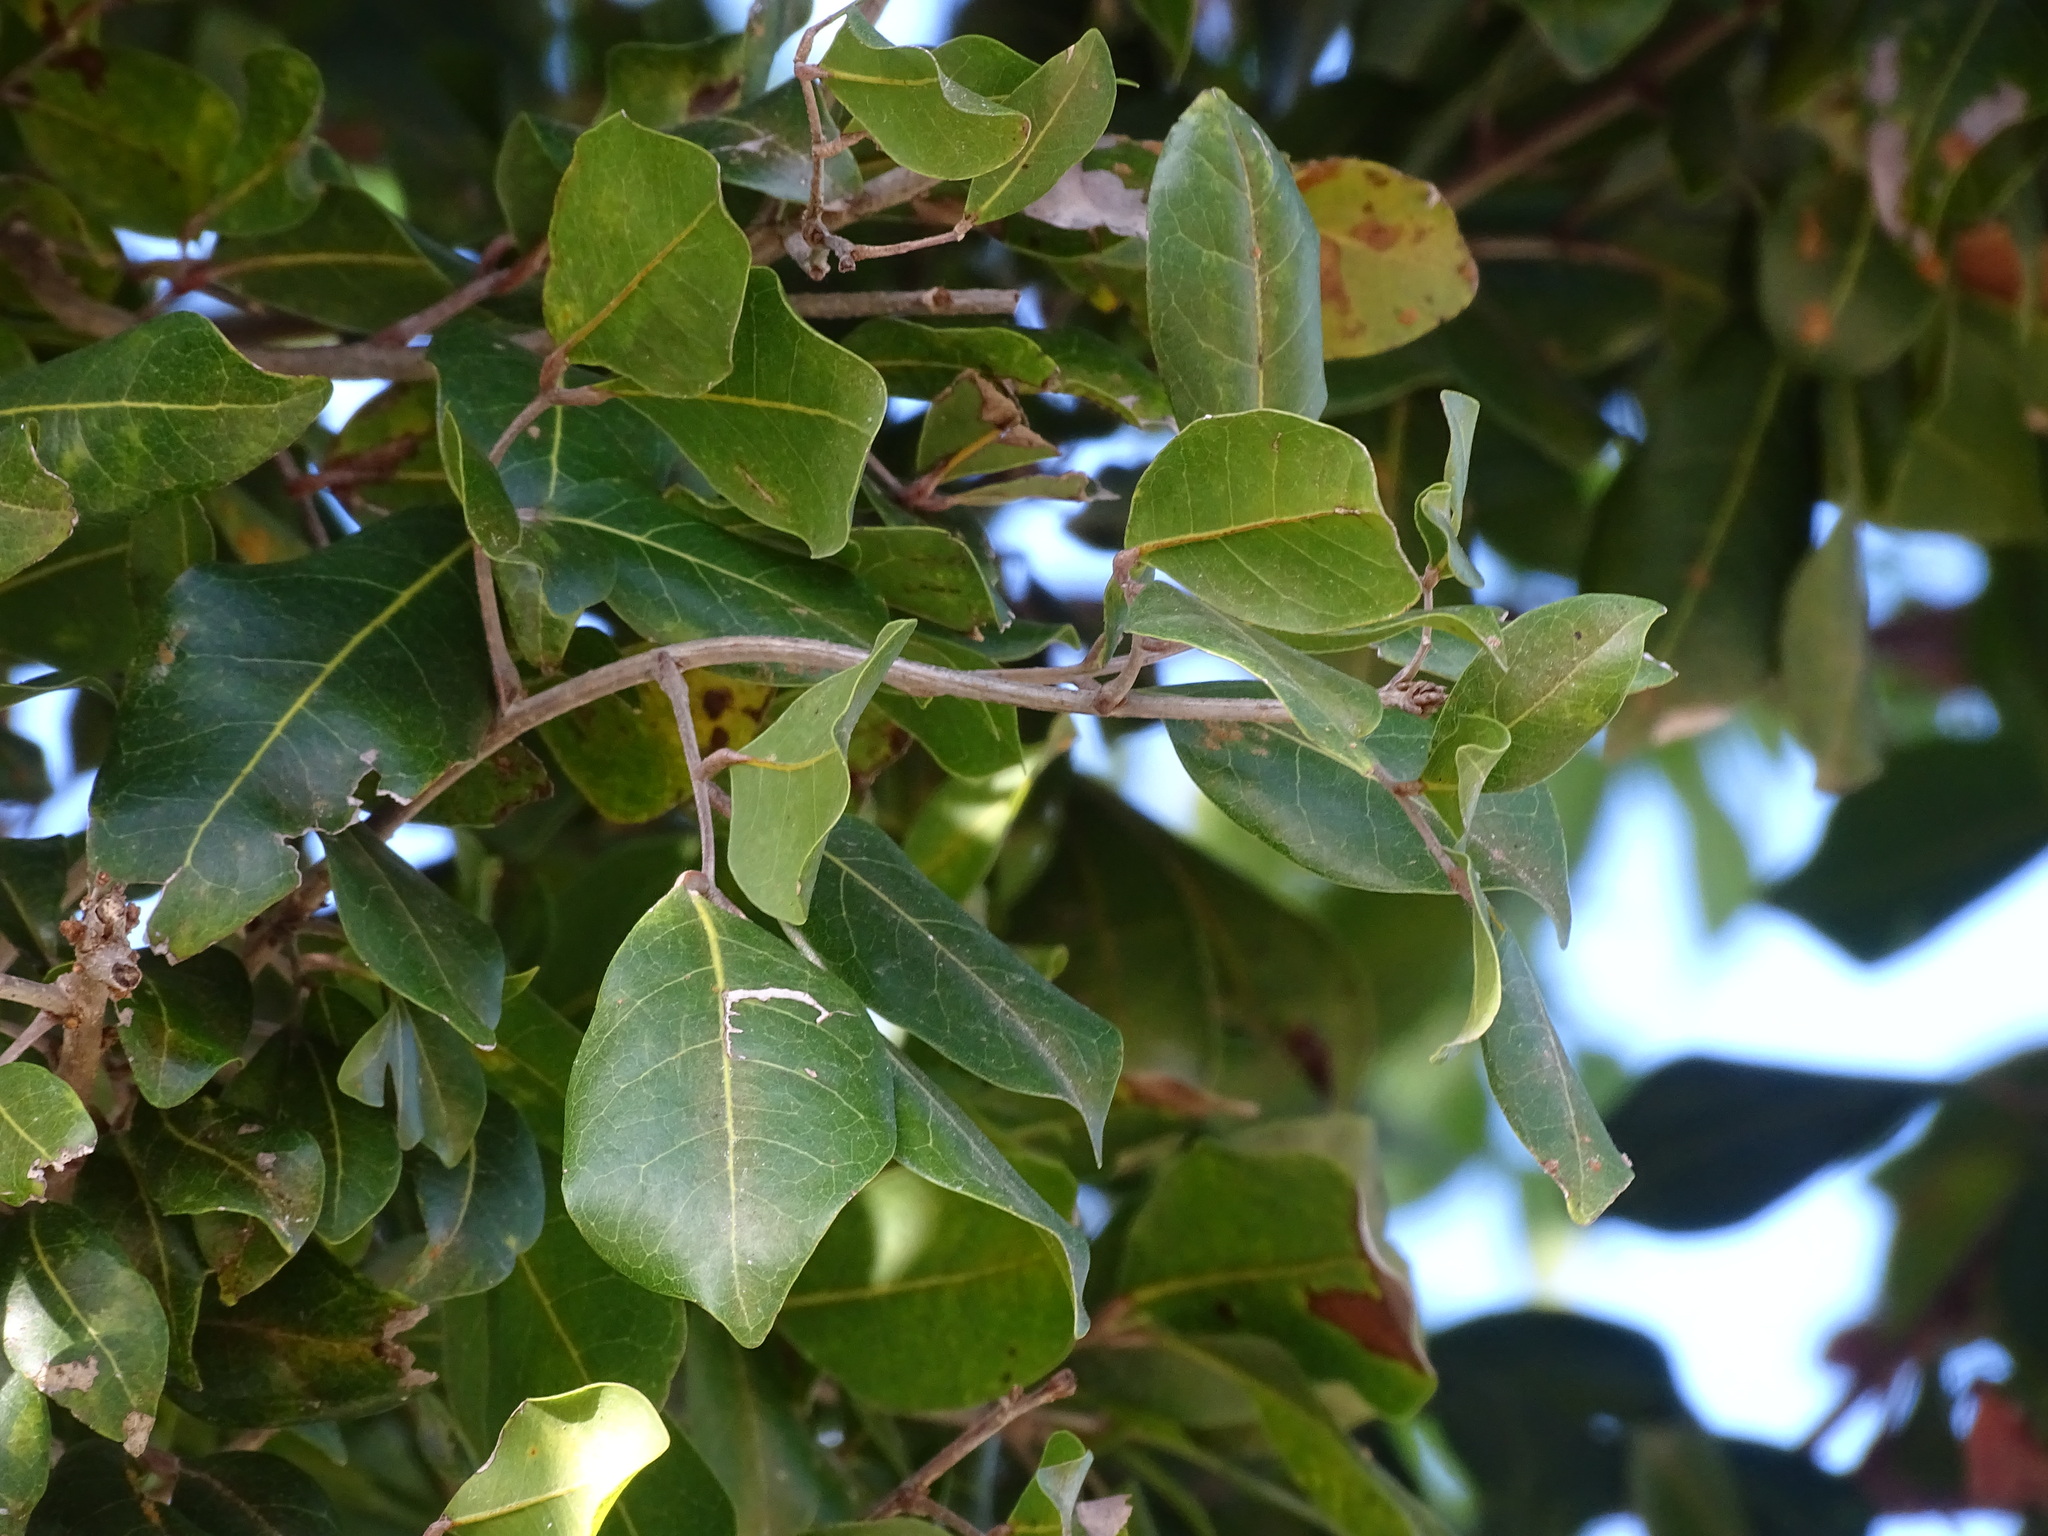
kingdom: Plantae
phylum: Tracheophyta
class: Magnoliopsida
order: Sapindales
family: Sapindaceae
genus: Melicoccus
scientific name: Melicoccus oliviformis
